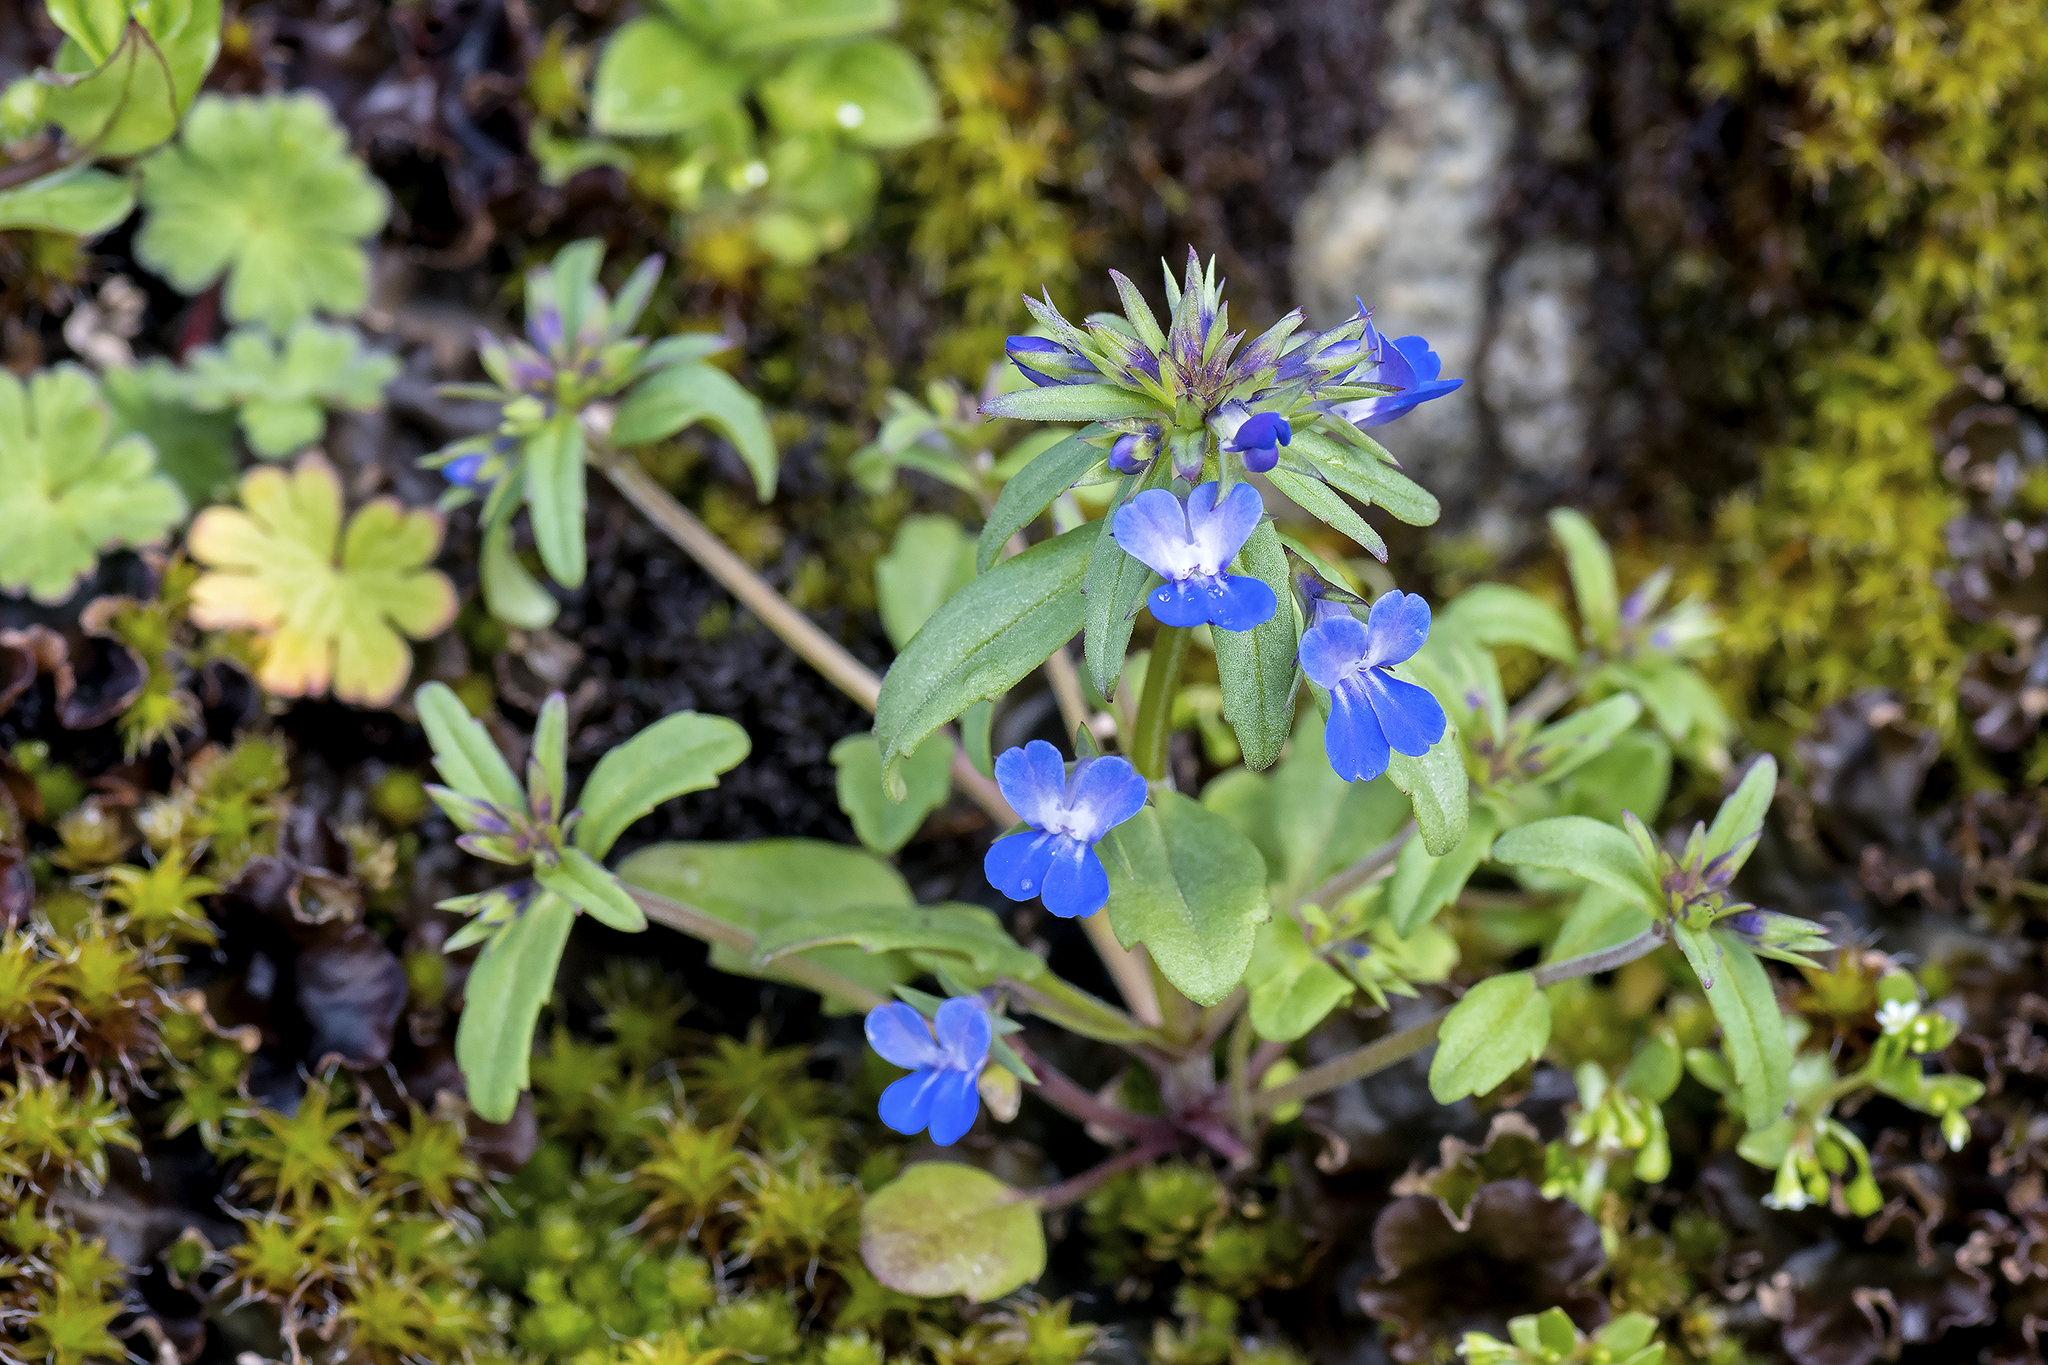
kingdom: Plantae
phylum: Tracheophyta
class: Magnoliopsida
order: Lamiales
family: Plantaginaceae
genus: Collinsia
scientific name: Collinsia grandiflora
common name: Large-flower blue-eyed-mary
